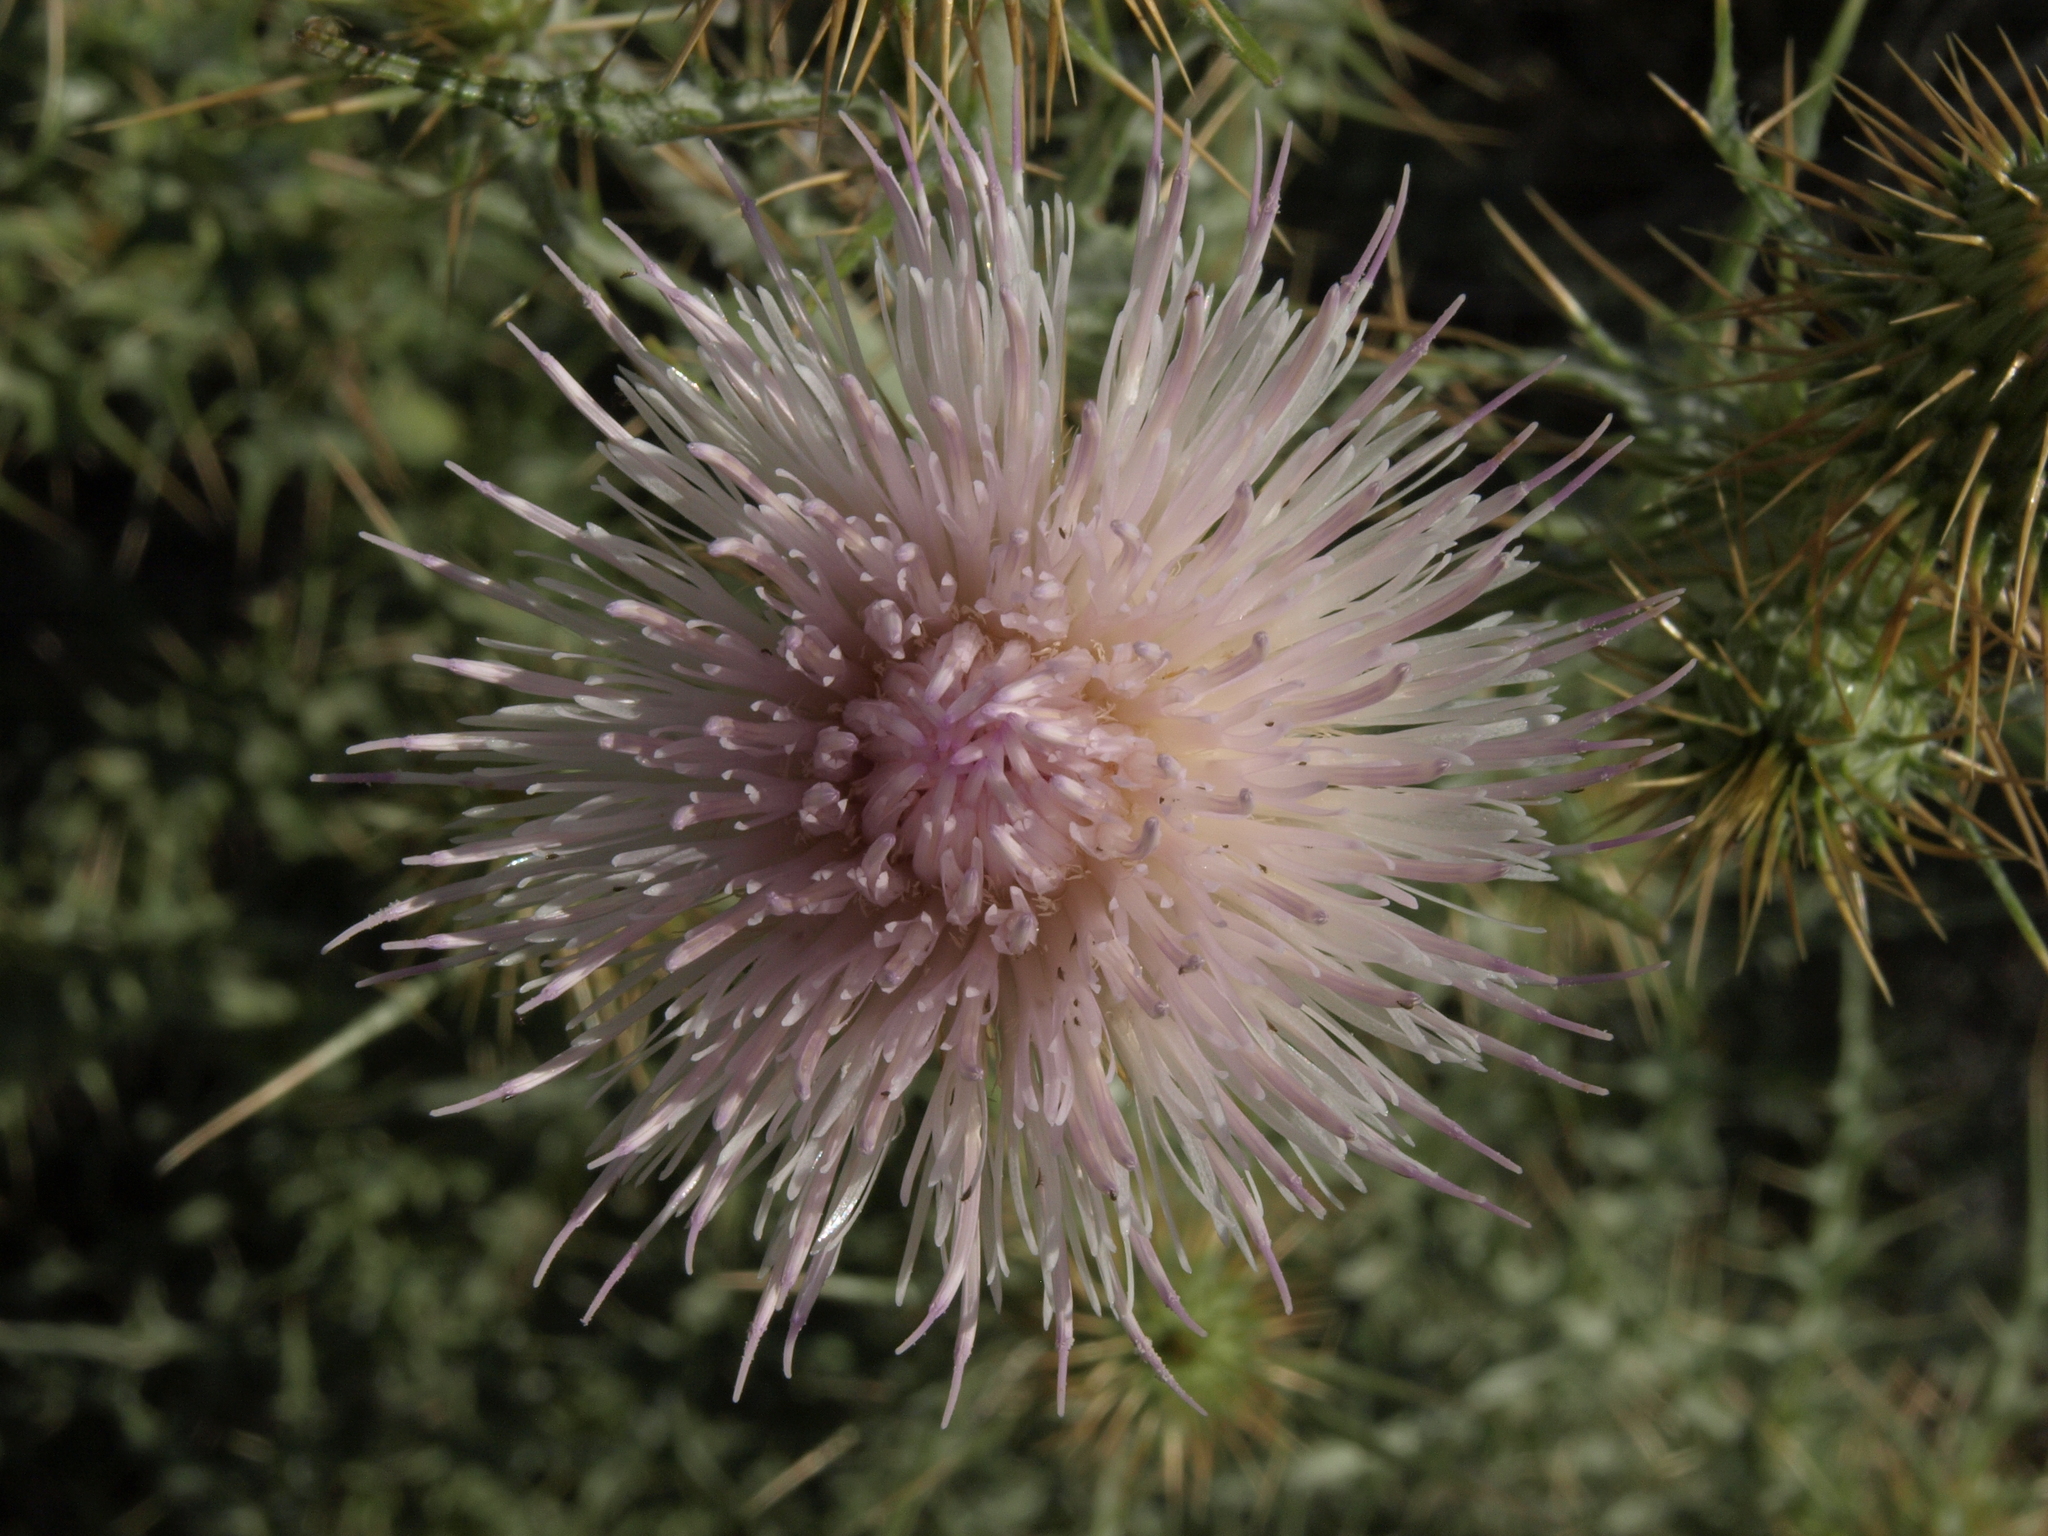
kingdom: Plantae
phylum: Tracheophyta
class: Magnoliopsida
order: Asterales
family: Asteraceae
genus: Cirsium
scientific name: Cirsium mohavense
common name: Mojave thistle
